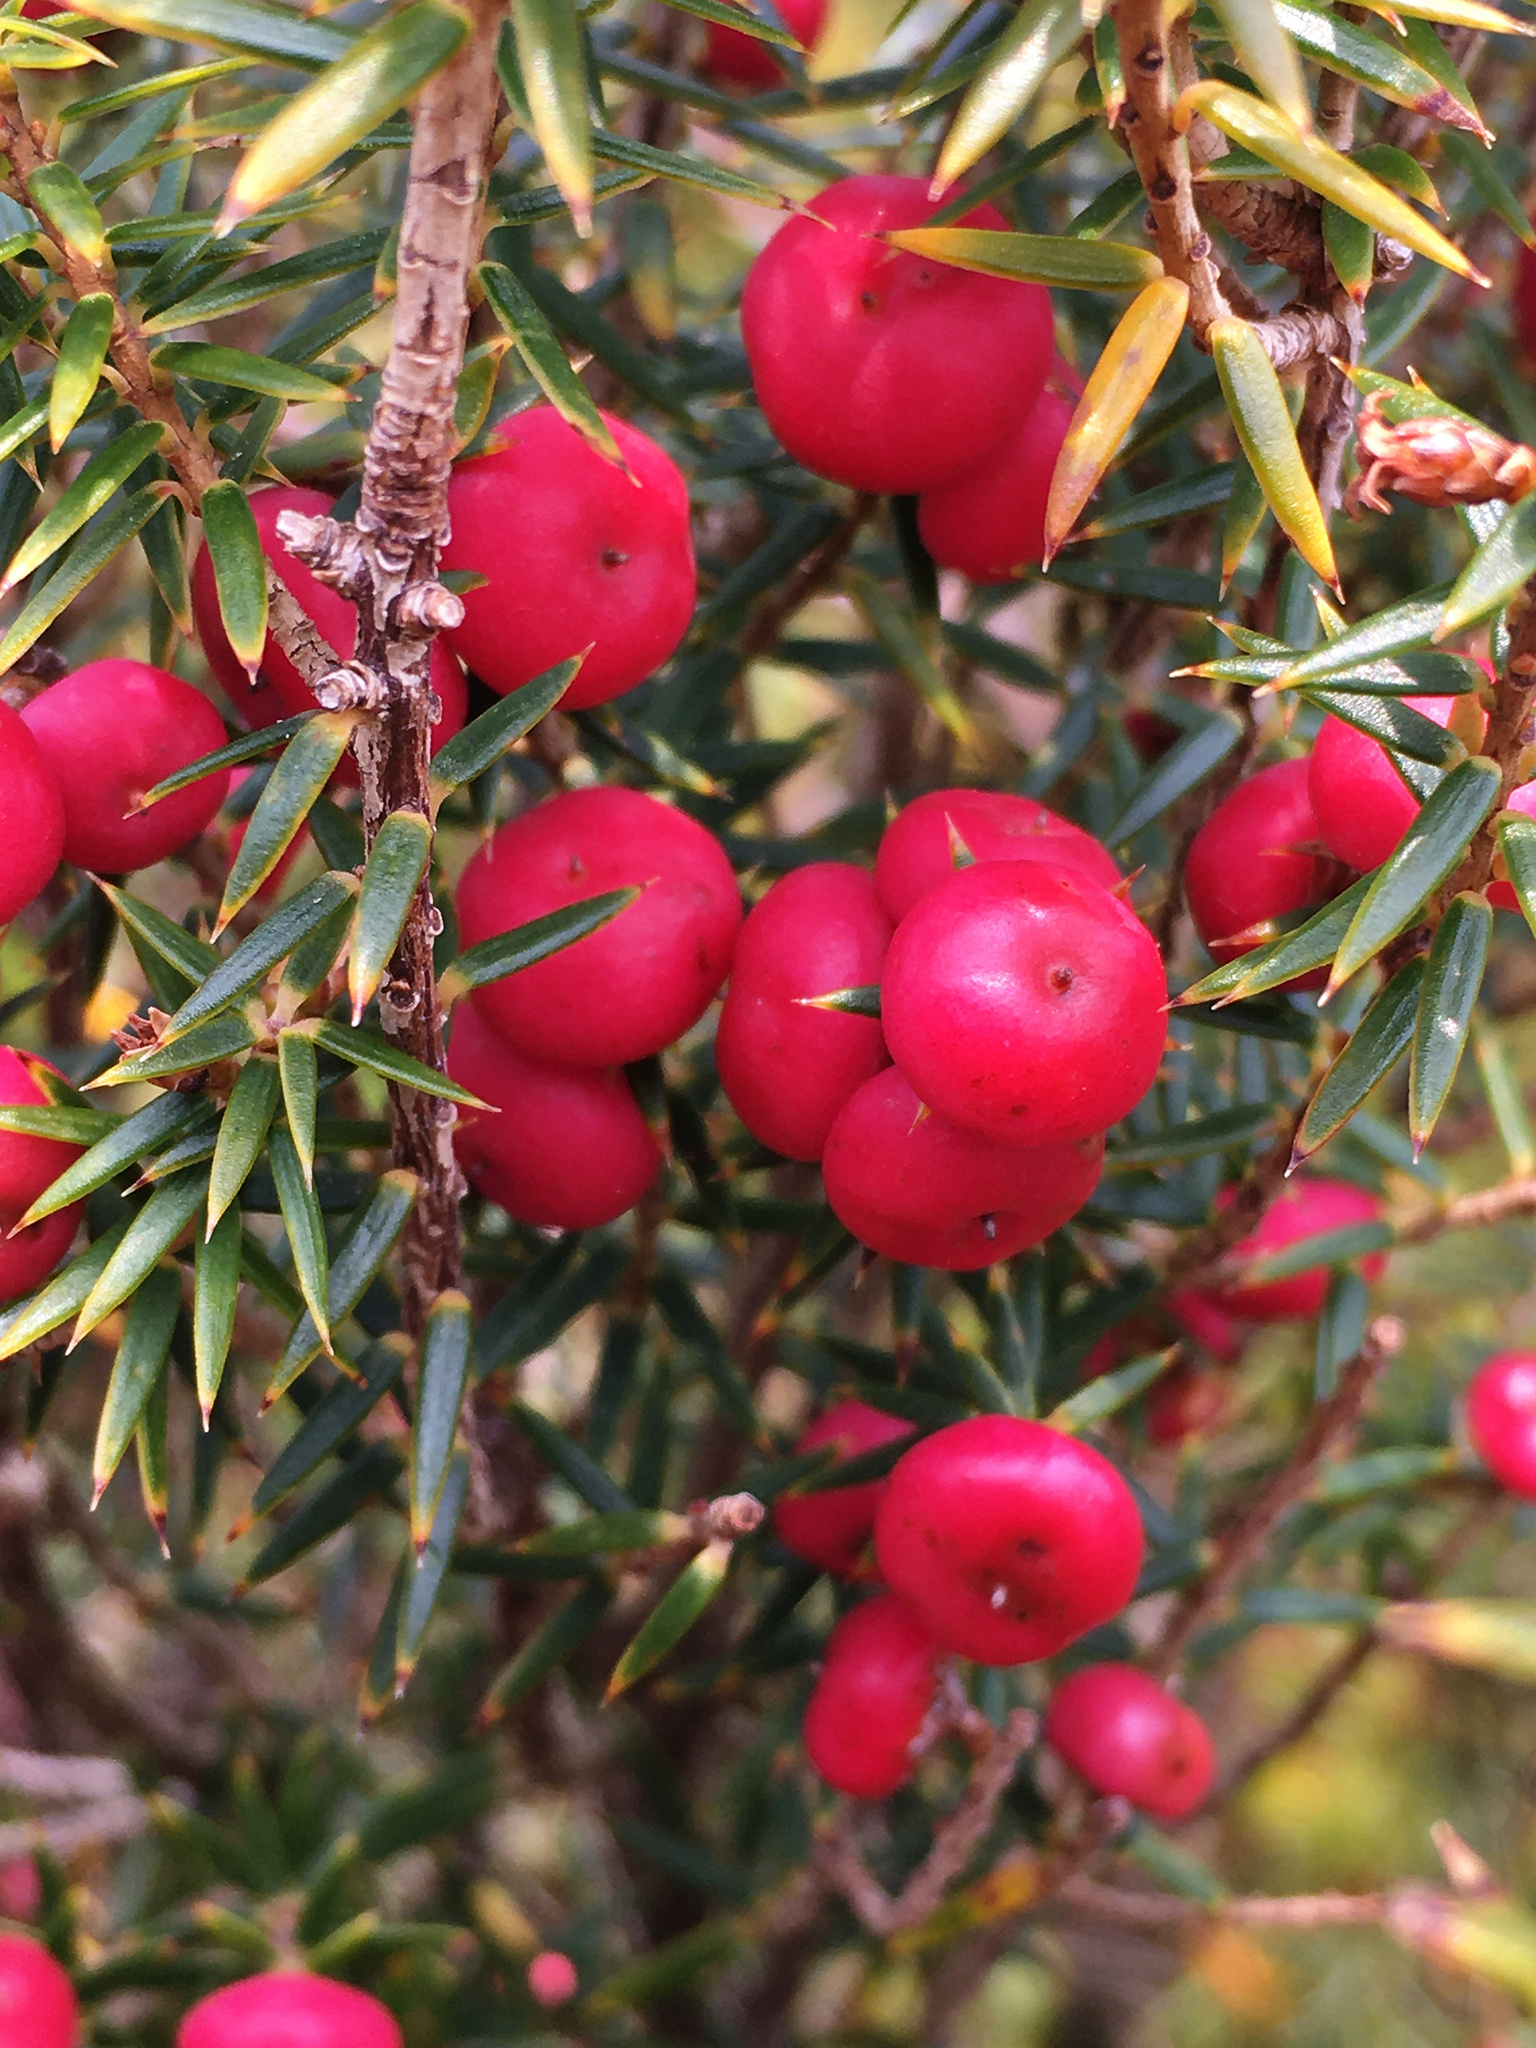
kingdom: Plantae
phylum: Tracheophyta
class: Magnoliopsida
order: Ericales
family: Ericaceae
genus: Leptecophylla
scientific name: Leptecophylla parvifolia
